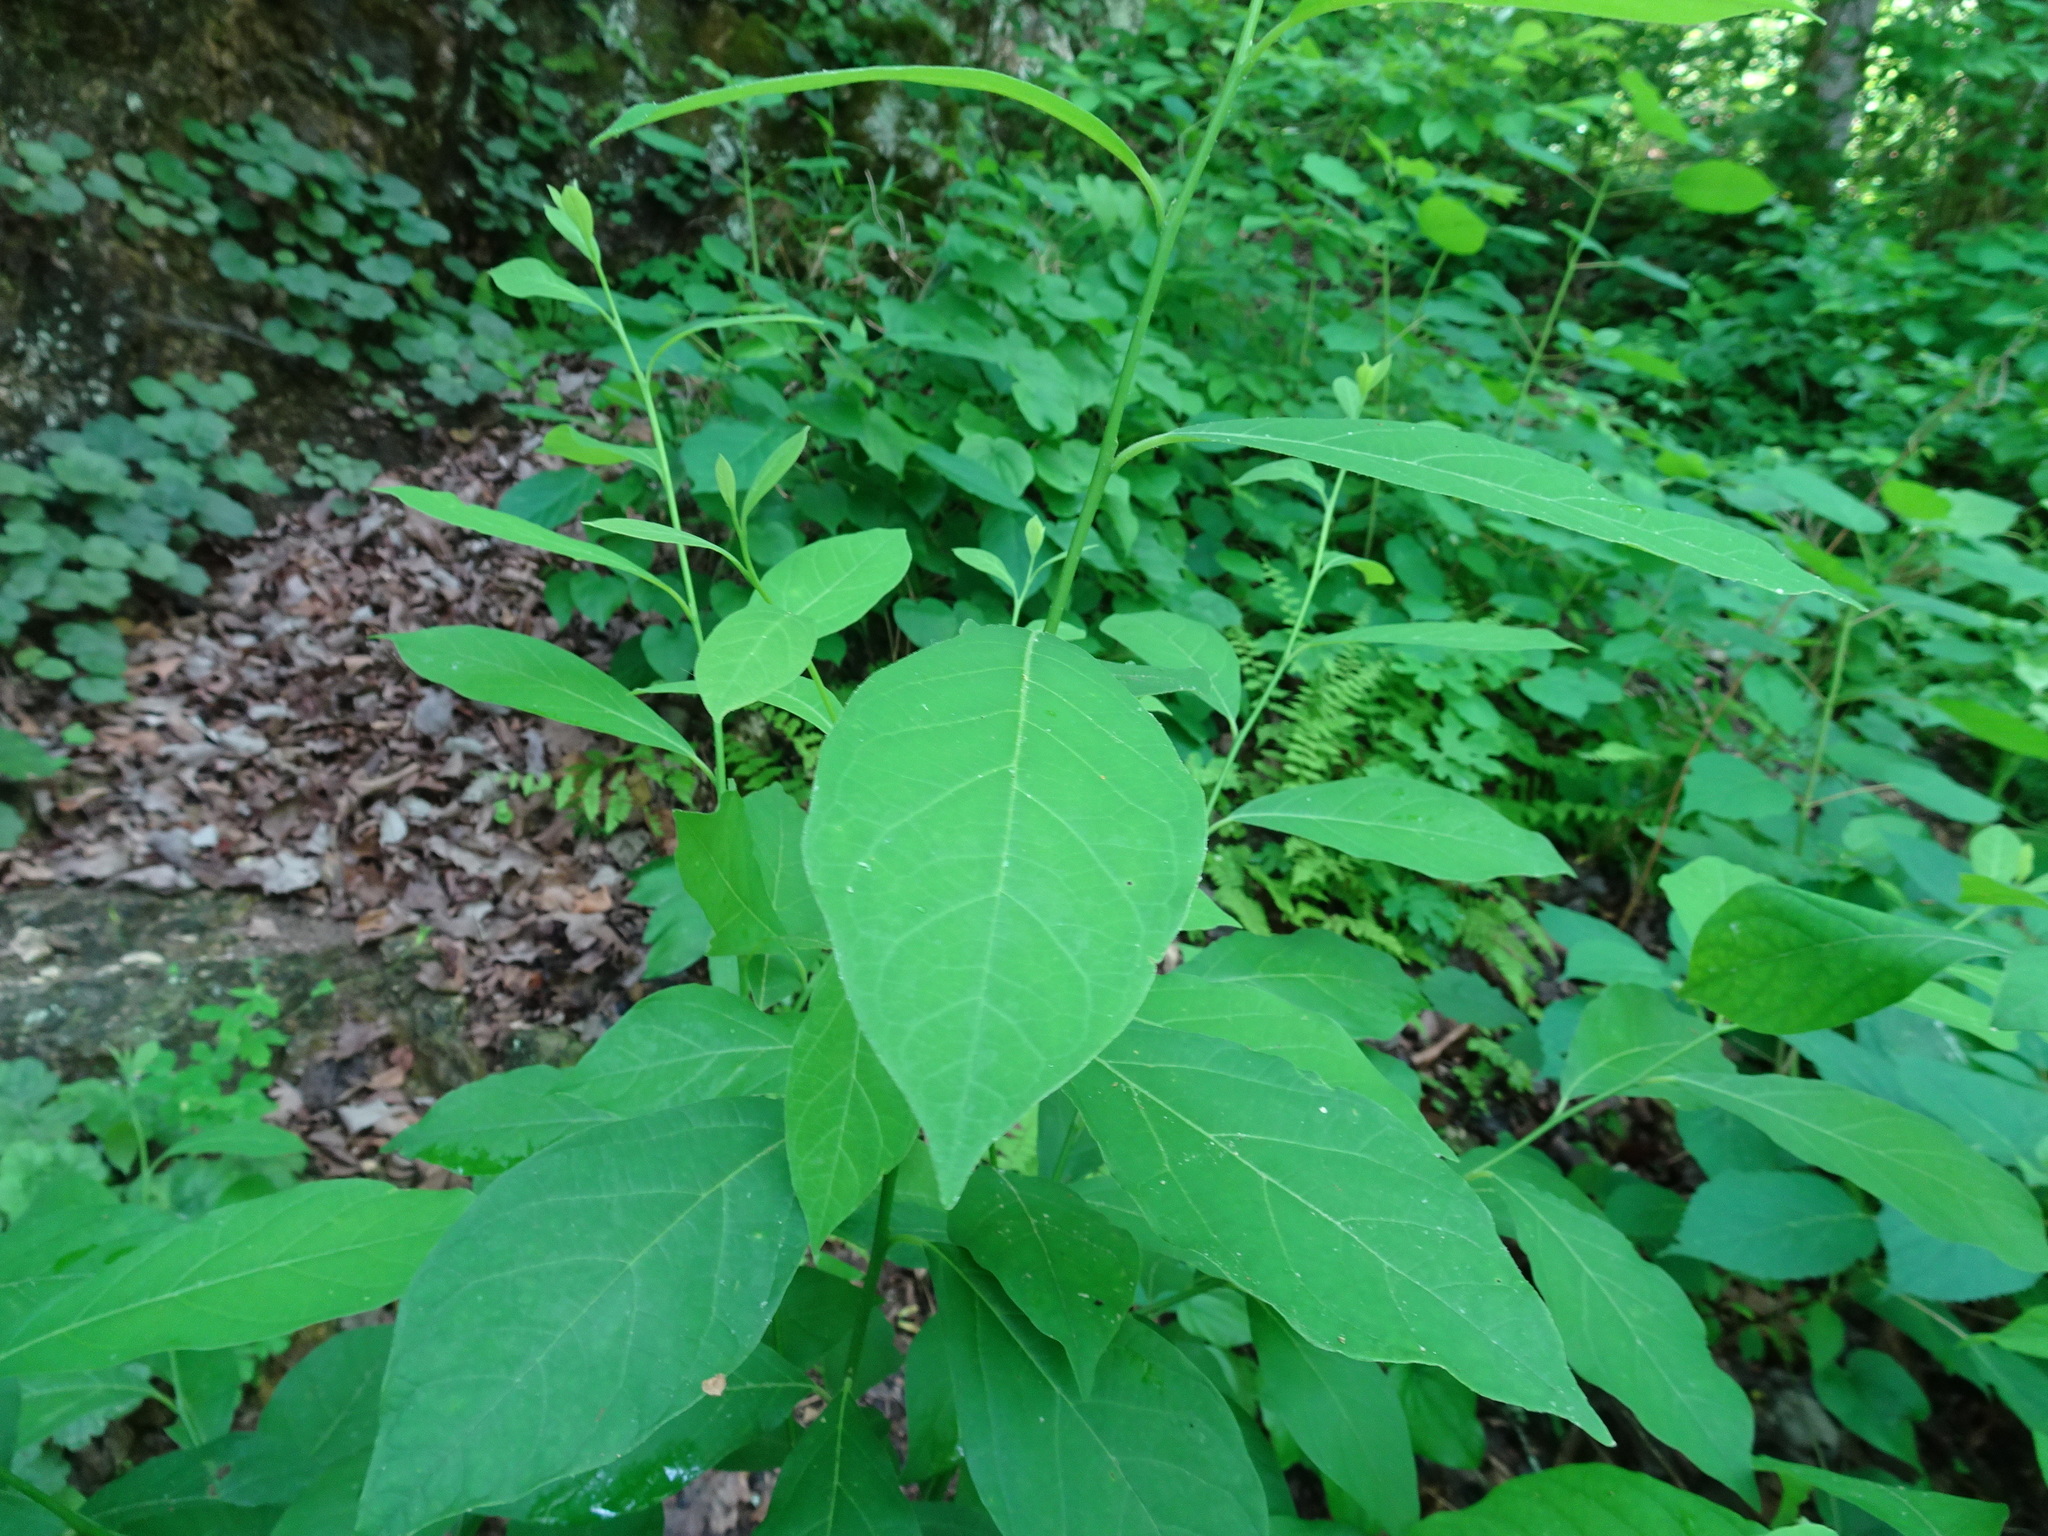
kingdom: Plantae
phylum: Tracheophyta
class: Magnoliopsida
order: Laurales
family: Lauraceae
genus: Lindera
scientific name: Lindera benzoin
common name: Spicebush
